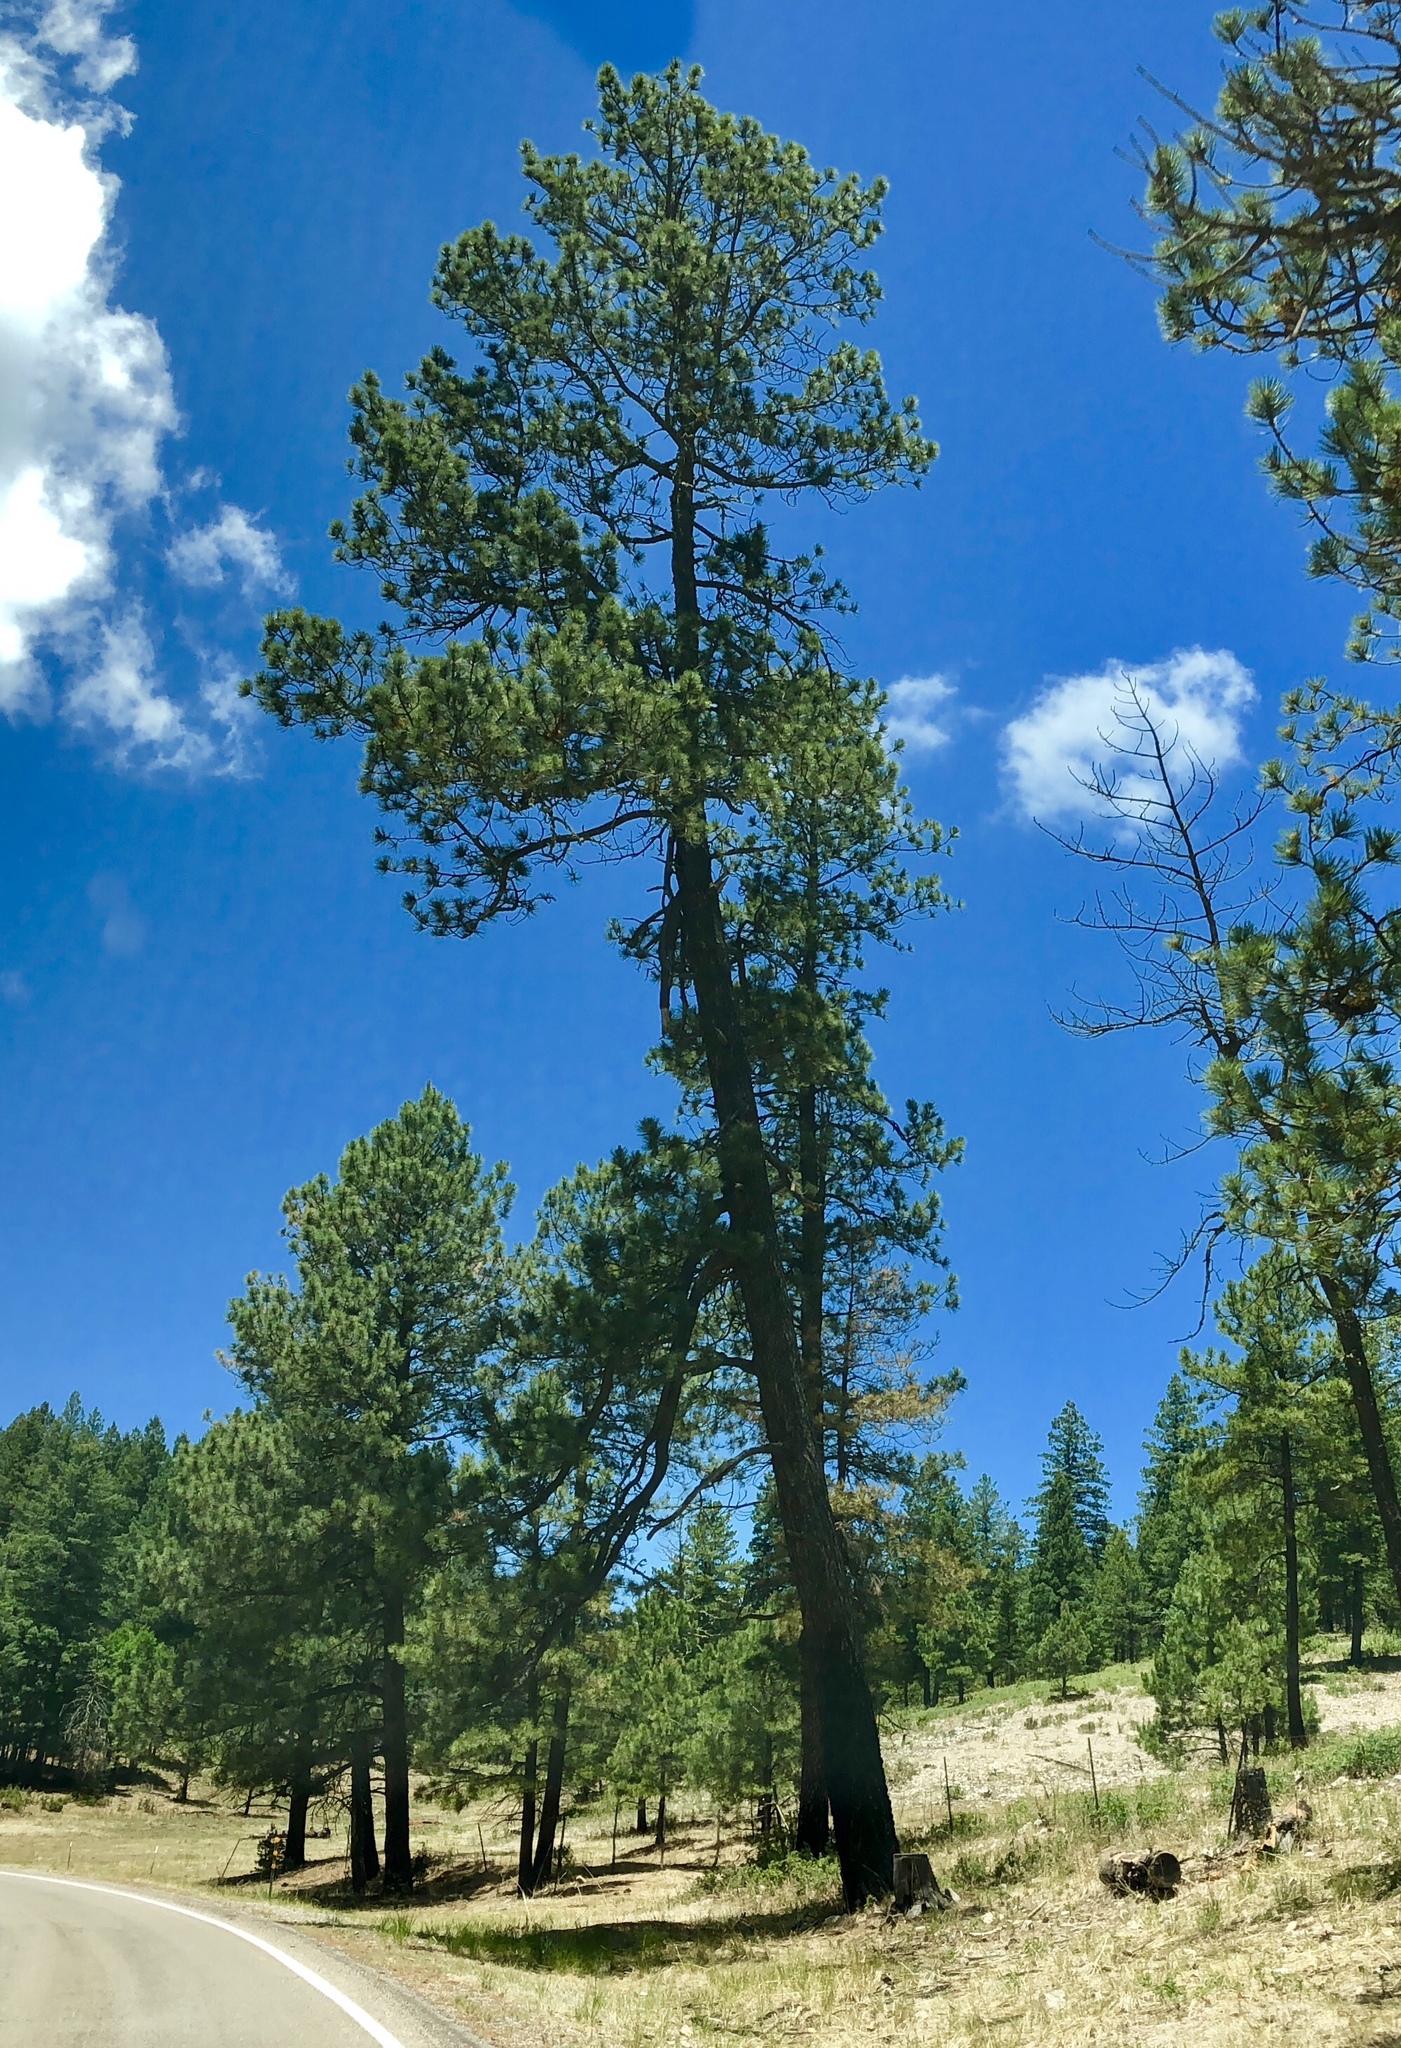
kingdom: Plantae
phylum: Tracheophyta
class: Pinopsida
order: Pinales
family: Pinaceae
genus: Pinus
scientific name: Pinus ponderosa
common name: Western yellow-pine
